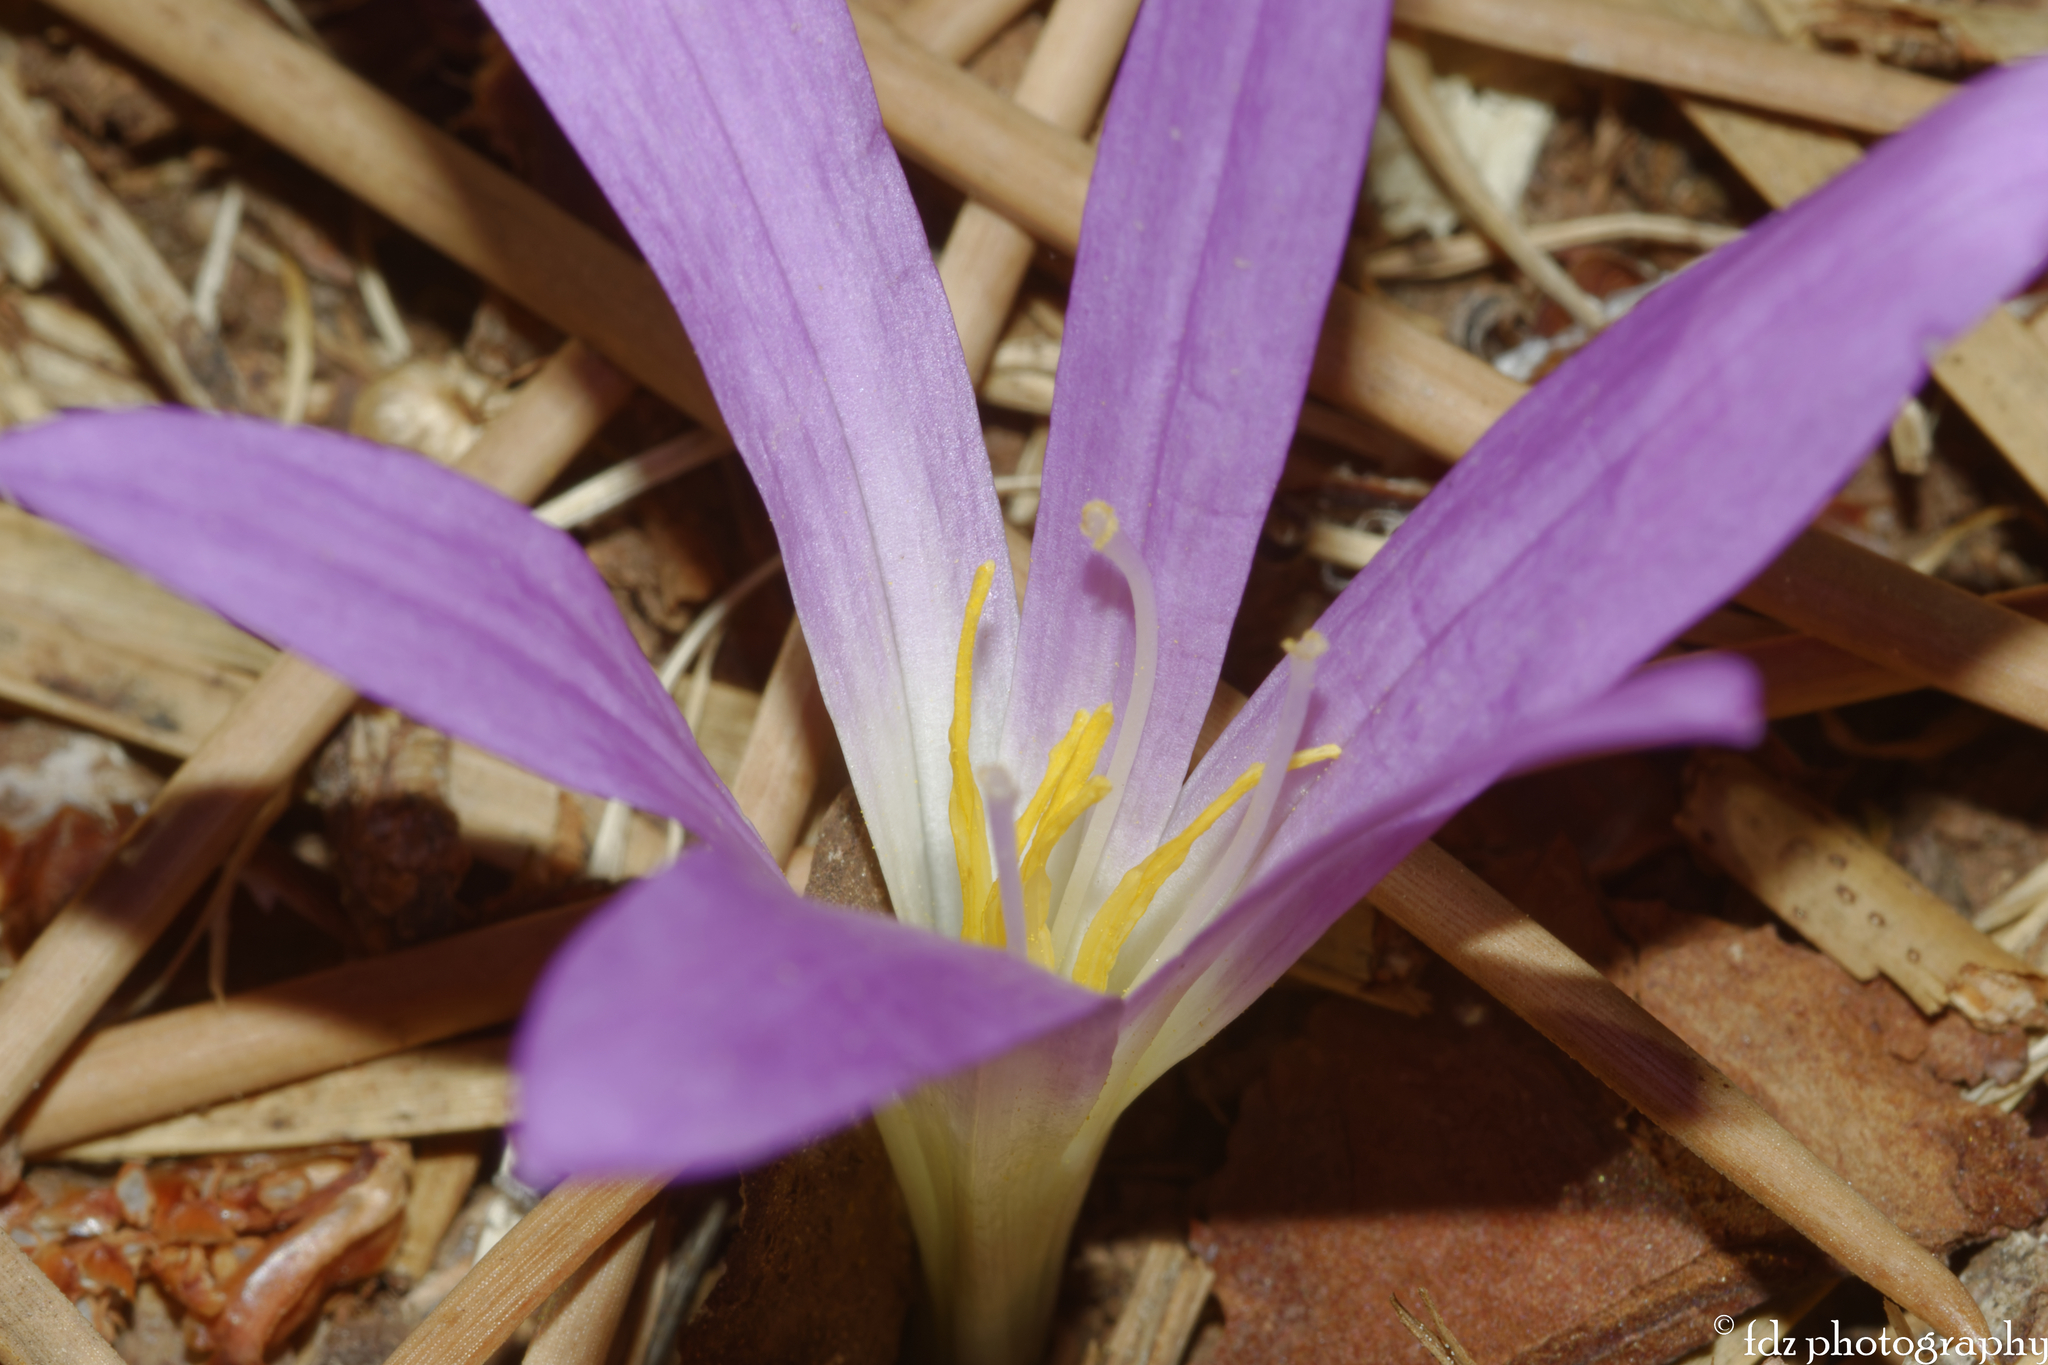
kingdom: Plantae
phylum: Tracheophyta
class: Liliopsida
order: Liliales
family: Colchicaceae
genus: Colchicum
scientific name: Colchicum montanum
